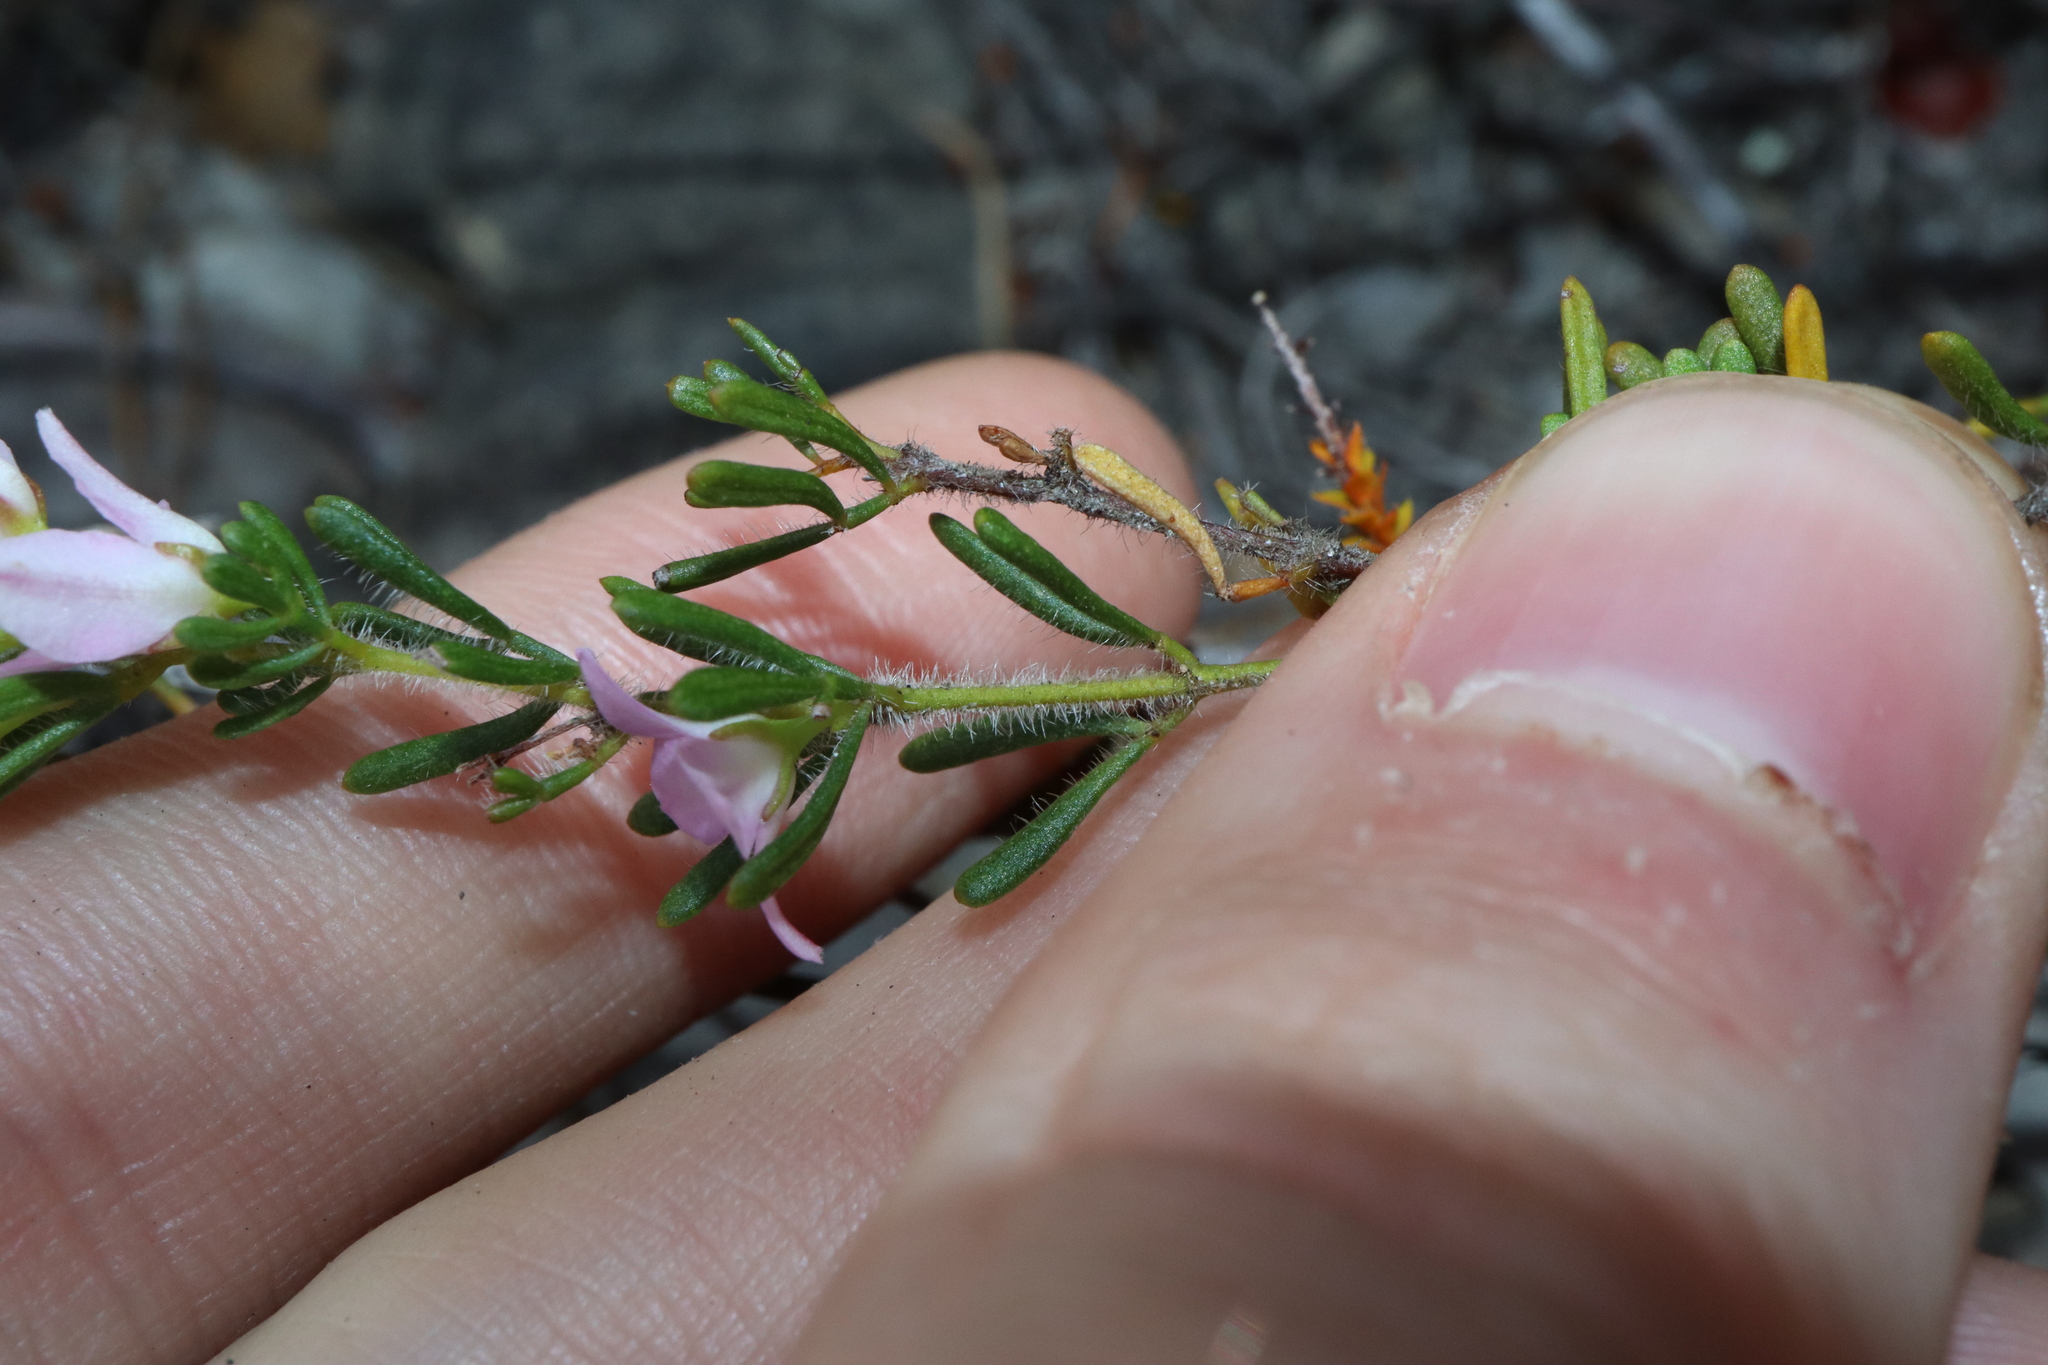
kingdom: Plantae
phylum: Tracheophyta
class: Magnoliopsida
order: Sapindales
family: Rutaceae
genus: Boronia
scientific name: Boronia albiflora
